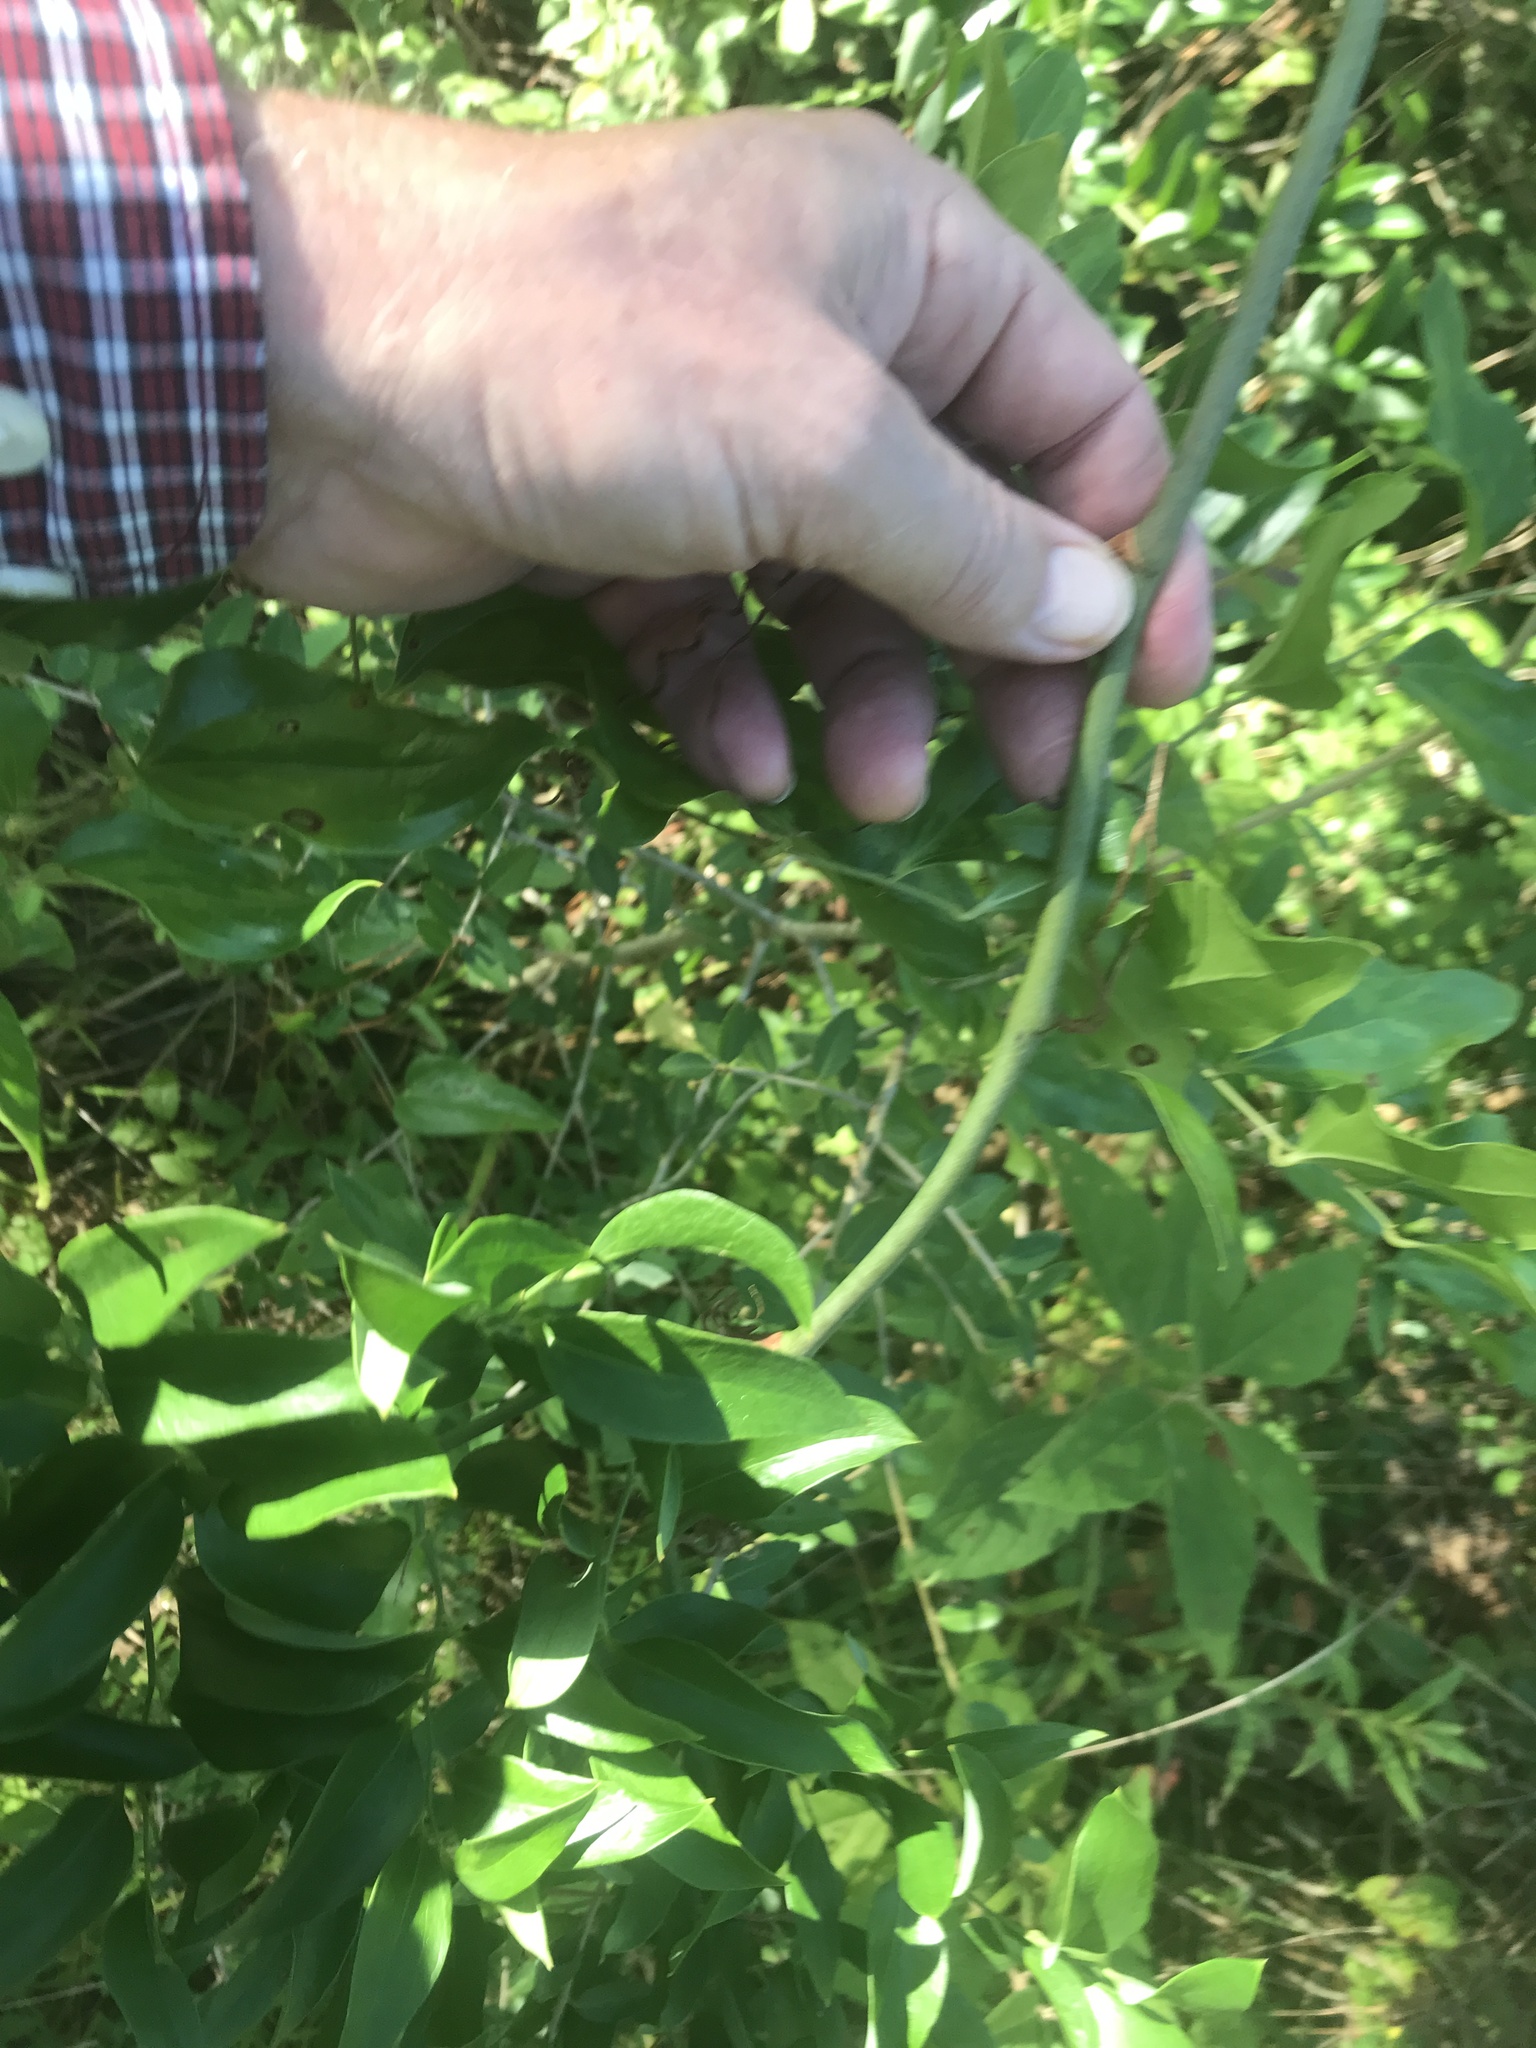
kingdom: Plantae
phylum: Tracheophyta
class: Liliopsida
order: Liliales
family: Smilacaceae
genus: Smilax
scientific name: Smilax maritima
